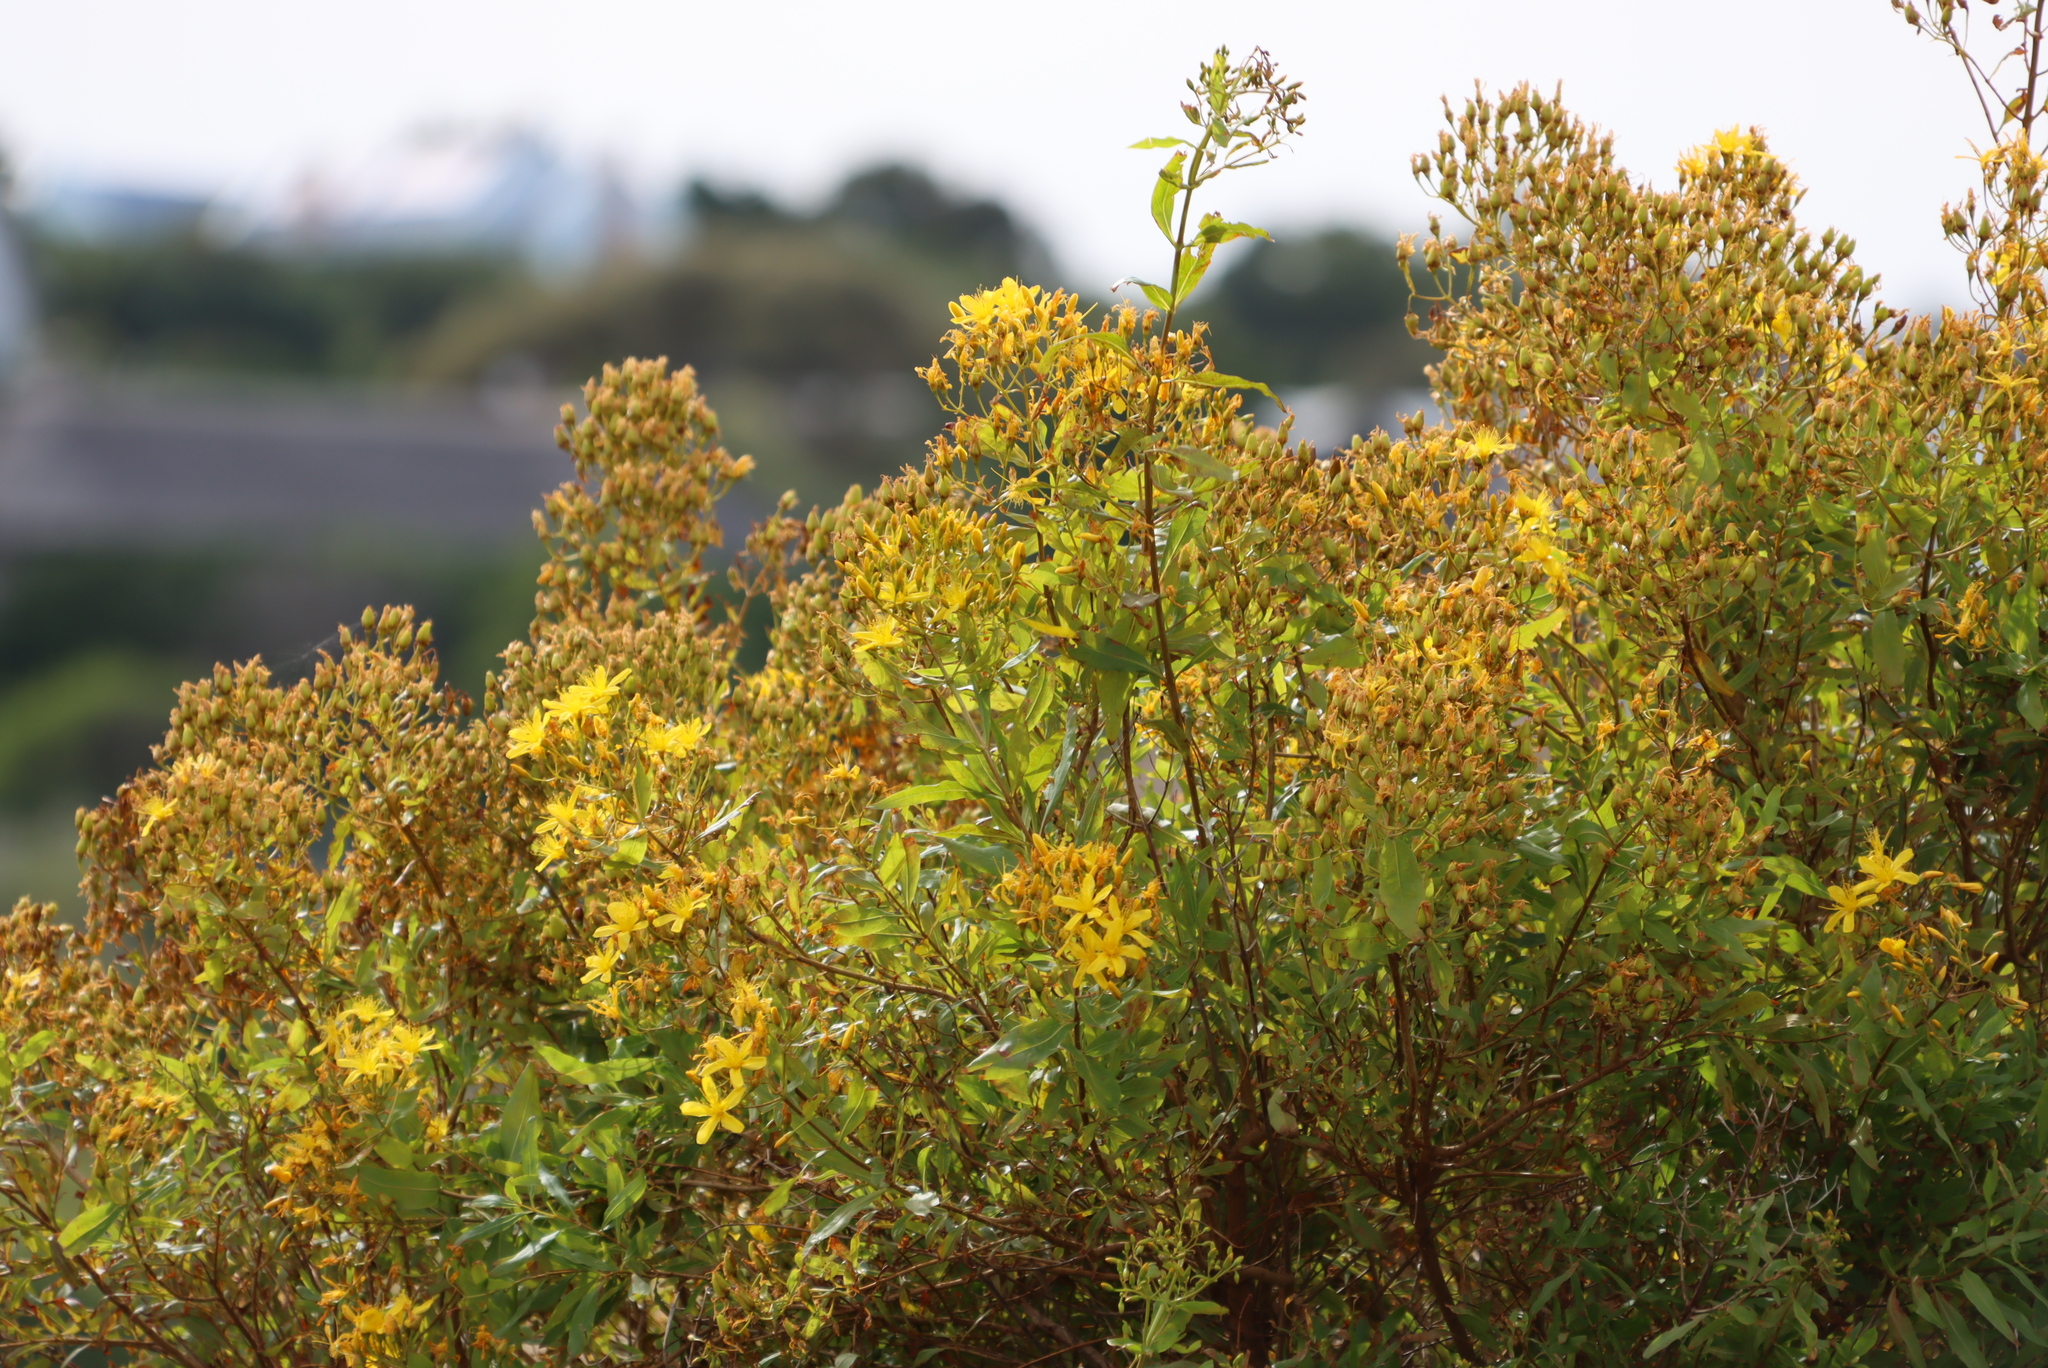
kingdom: Plantae
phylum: Tracheophyta
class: Magnoliopsida
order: Malpighiales
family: Hypericaceae
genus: Hypericum
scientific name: Hypericum canariense
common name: Canary island st. johnswort
